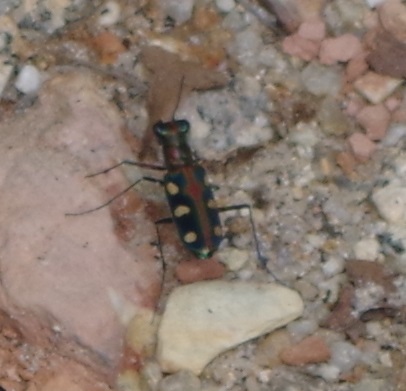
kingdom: Animalia
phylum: Arthropoda
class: Insecta
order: Coleoptera
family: Carabidae
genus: Cicindela
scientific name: Cicindela aurulenta
